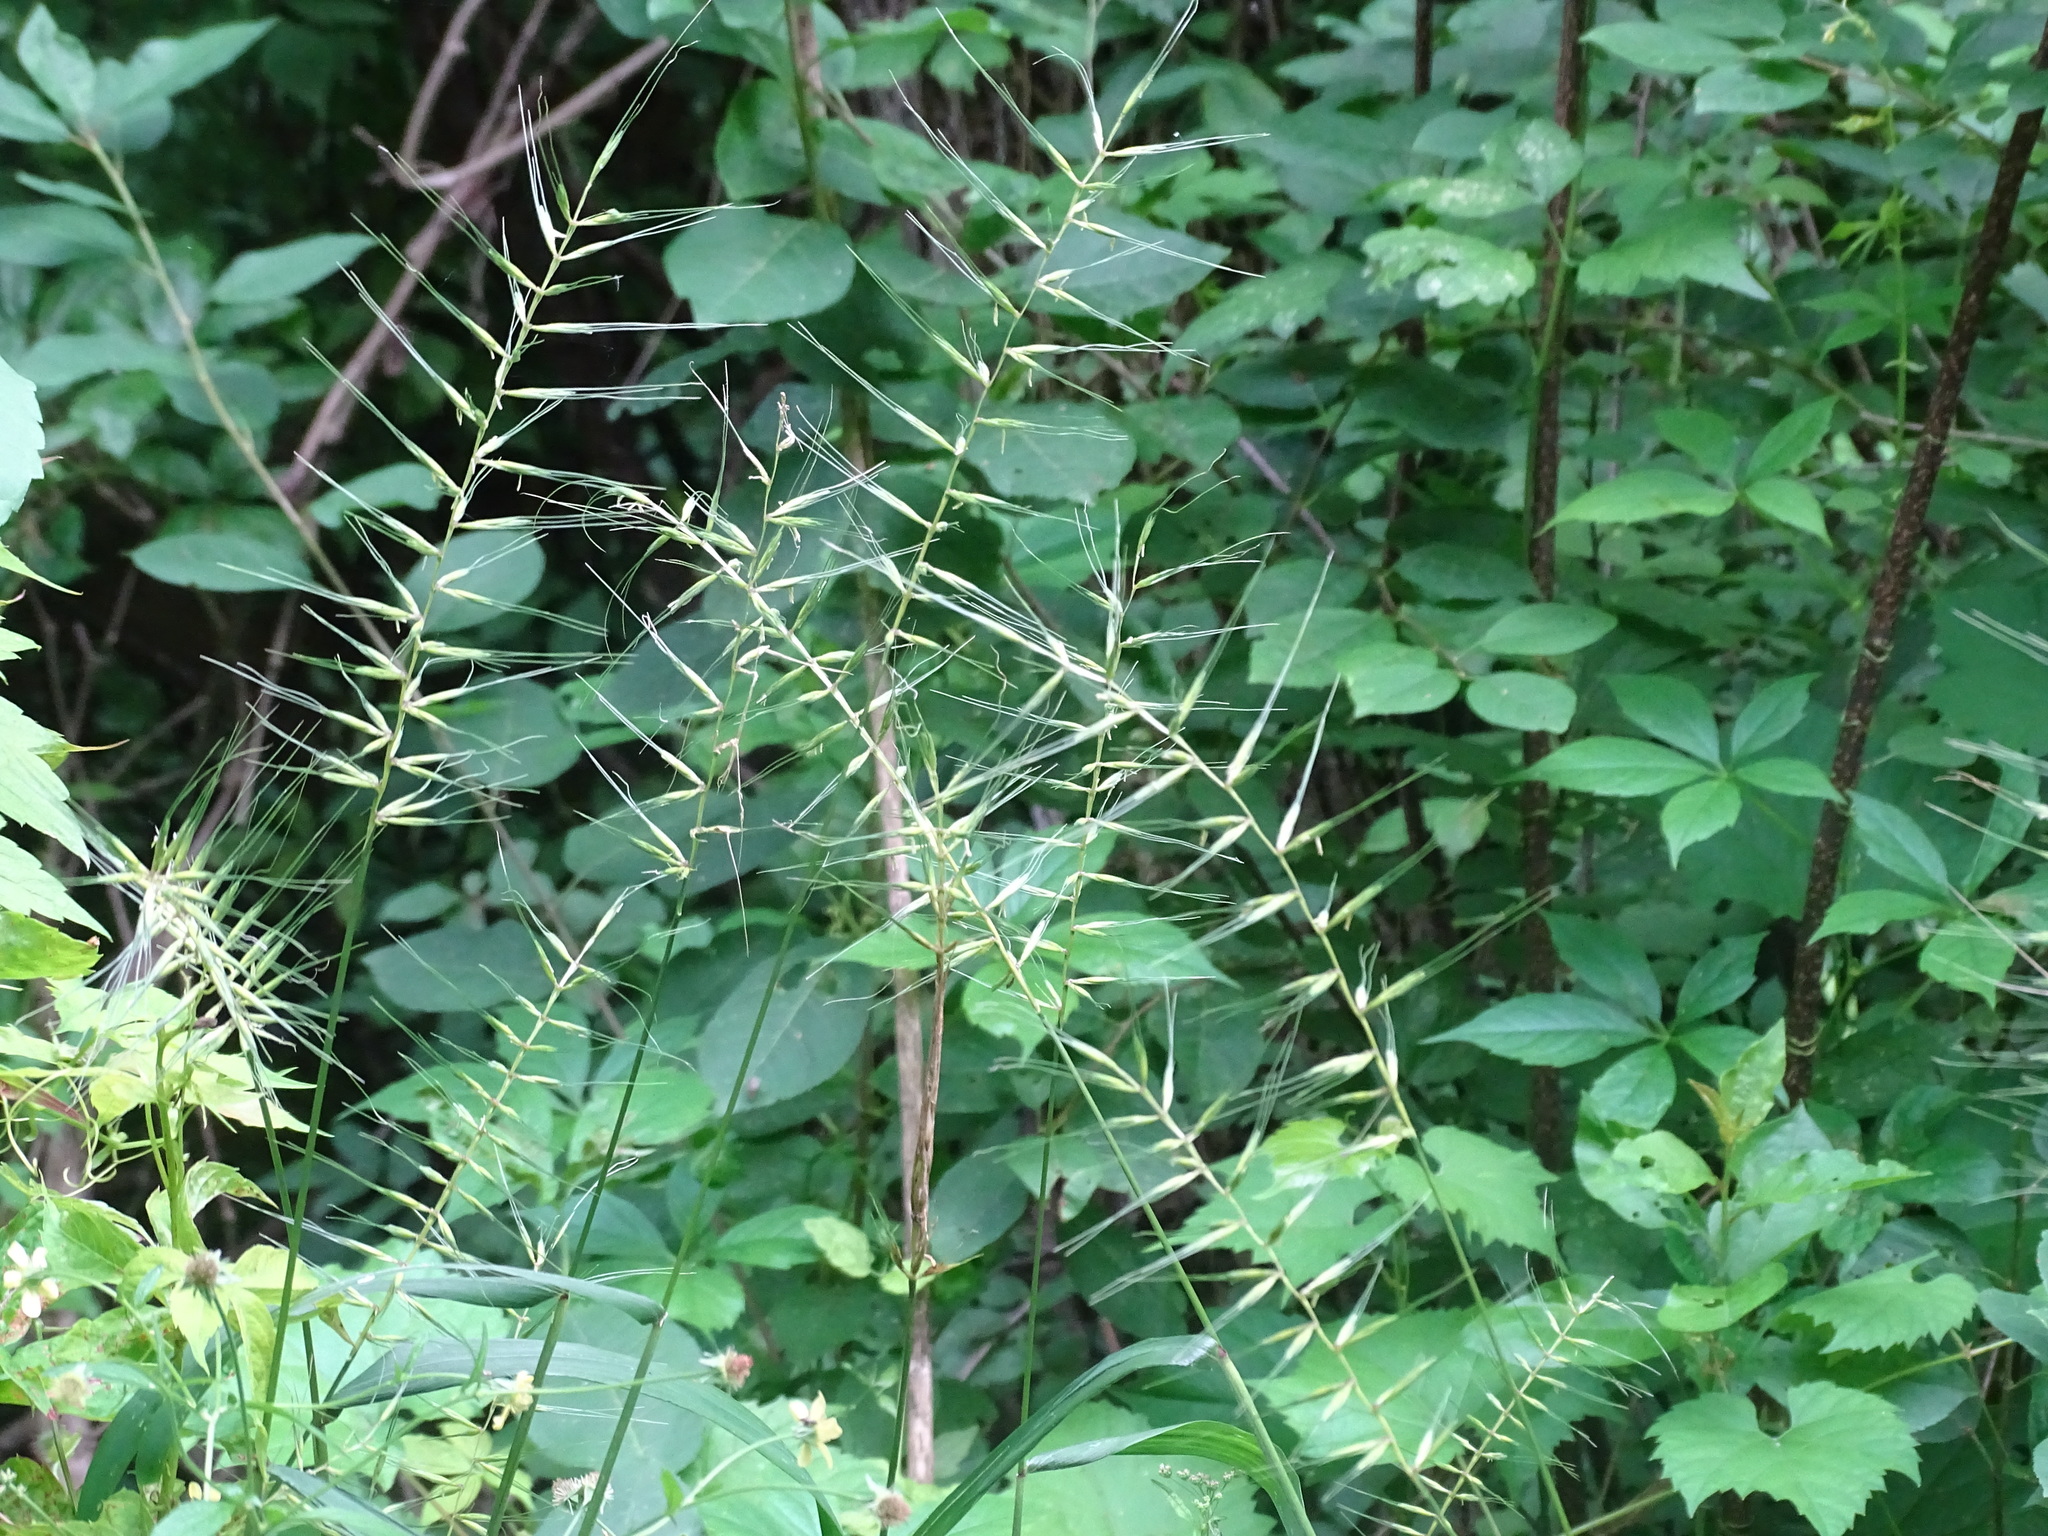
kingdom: Plantae
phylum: Tracheophyta
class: Liliopsida
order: Poales
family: Poaceae
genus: Elymus
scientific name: Elymus hystrix
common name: Bottlebrush grass
